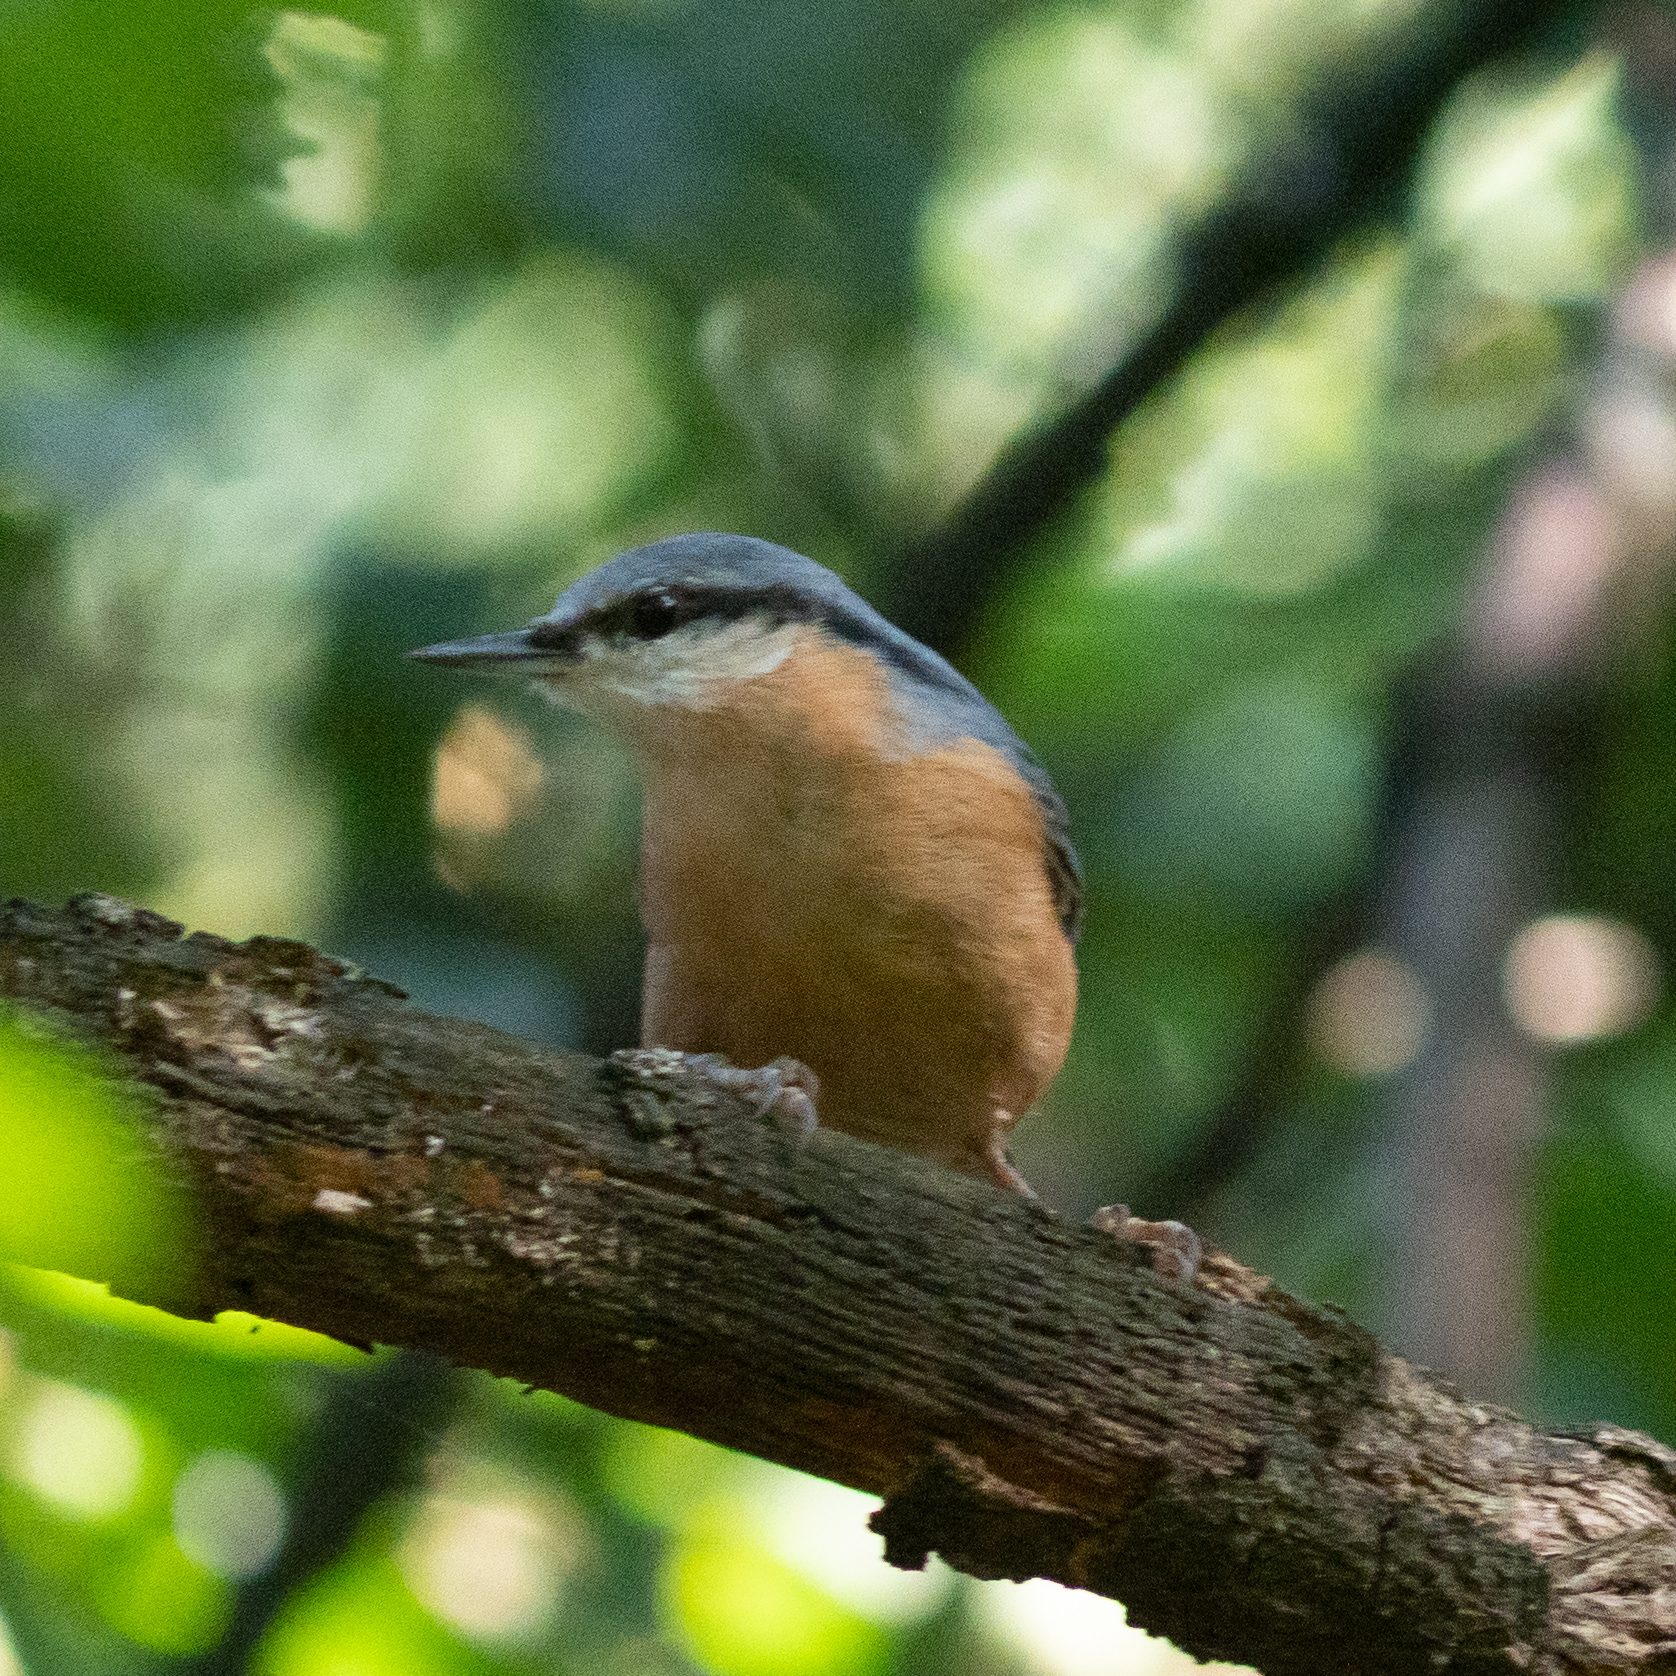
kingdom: Animalia
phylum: Chordata
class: Aves
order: Passeriformes
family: Sittidae
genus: Sitta
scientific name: Sitta europaea
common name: Eurasian nuthatch
